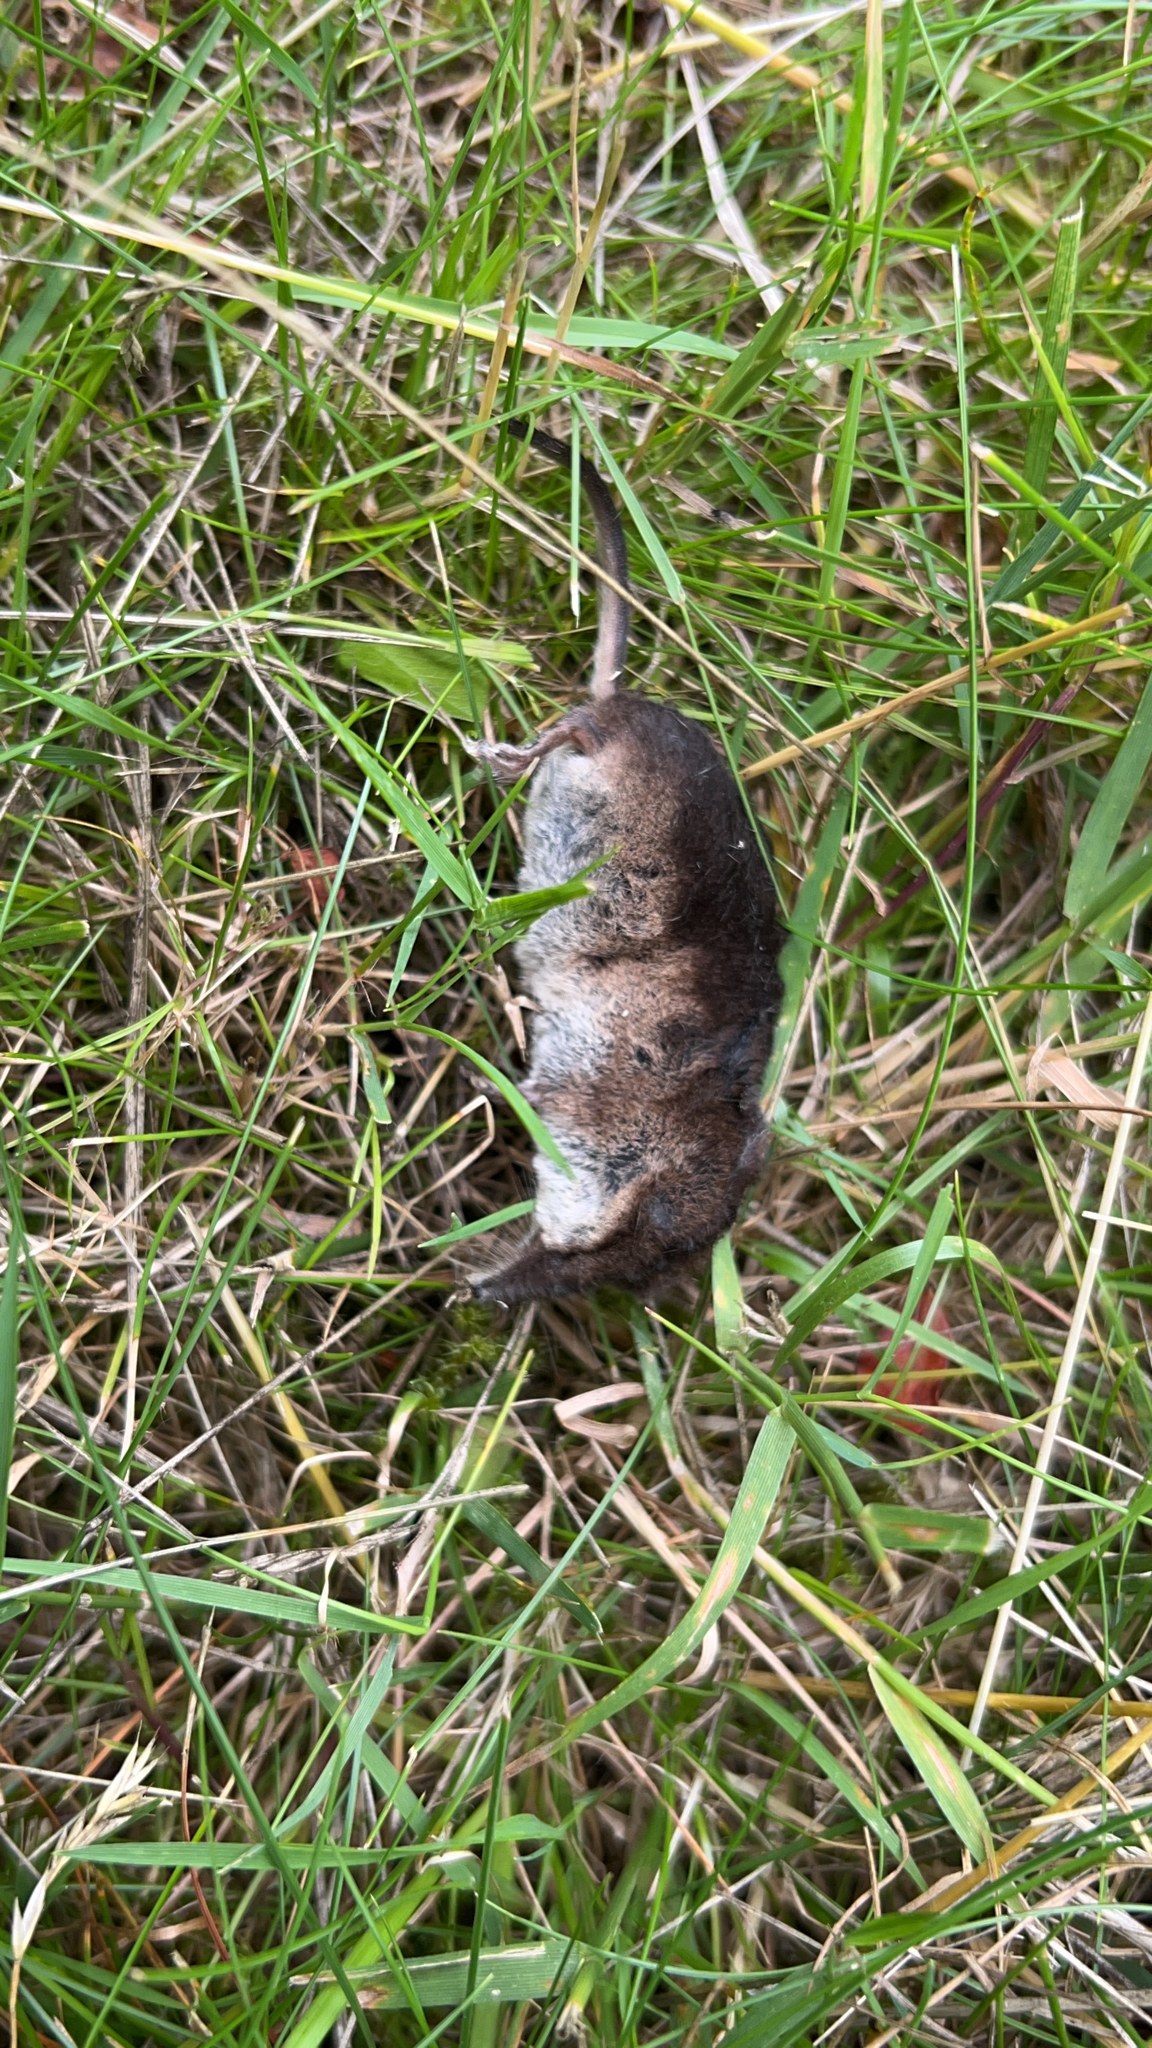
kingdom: Animalia
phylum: Chordata
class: Mammalia
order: Soricomorpha
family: Soricidae
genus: Sorex
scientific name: Sorex araneus
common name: Common shrew
